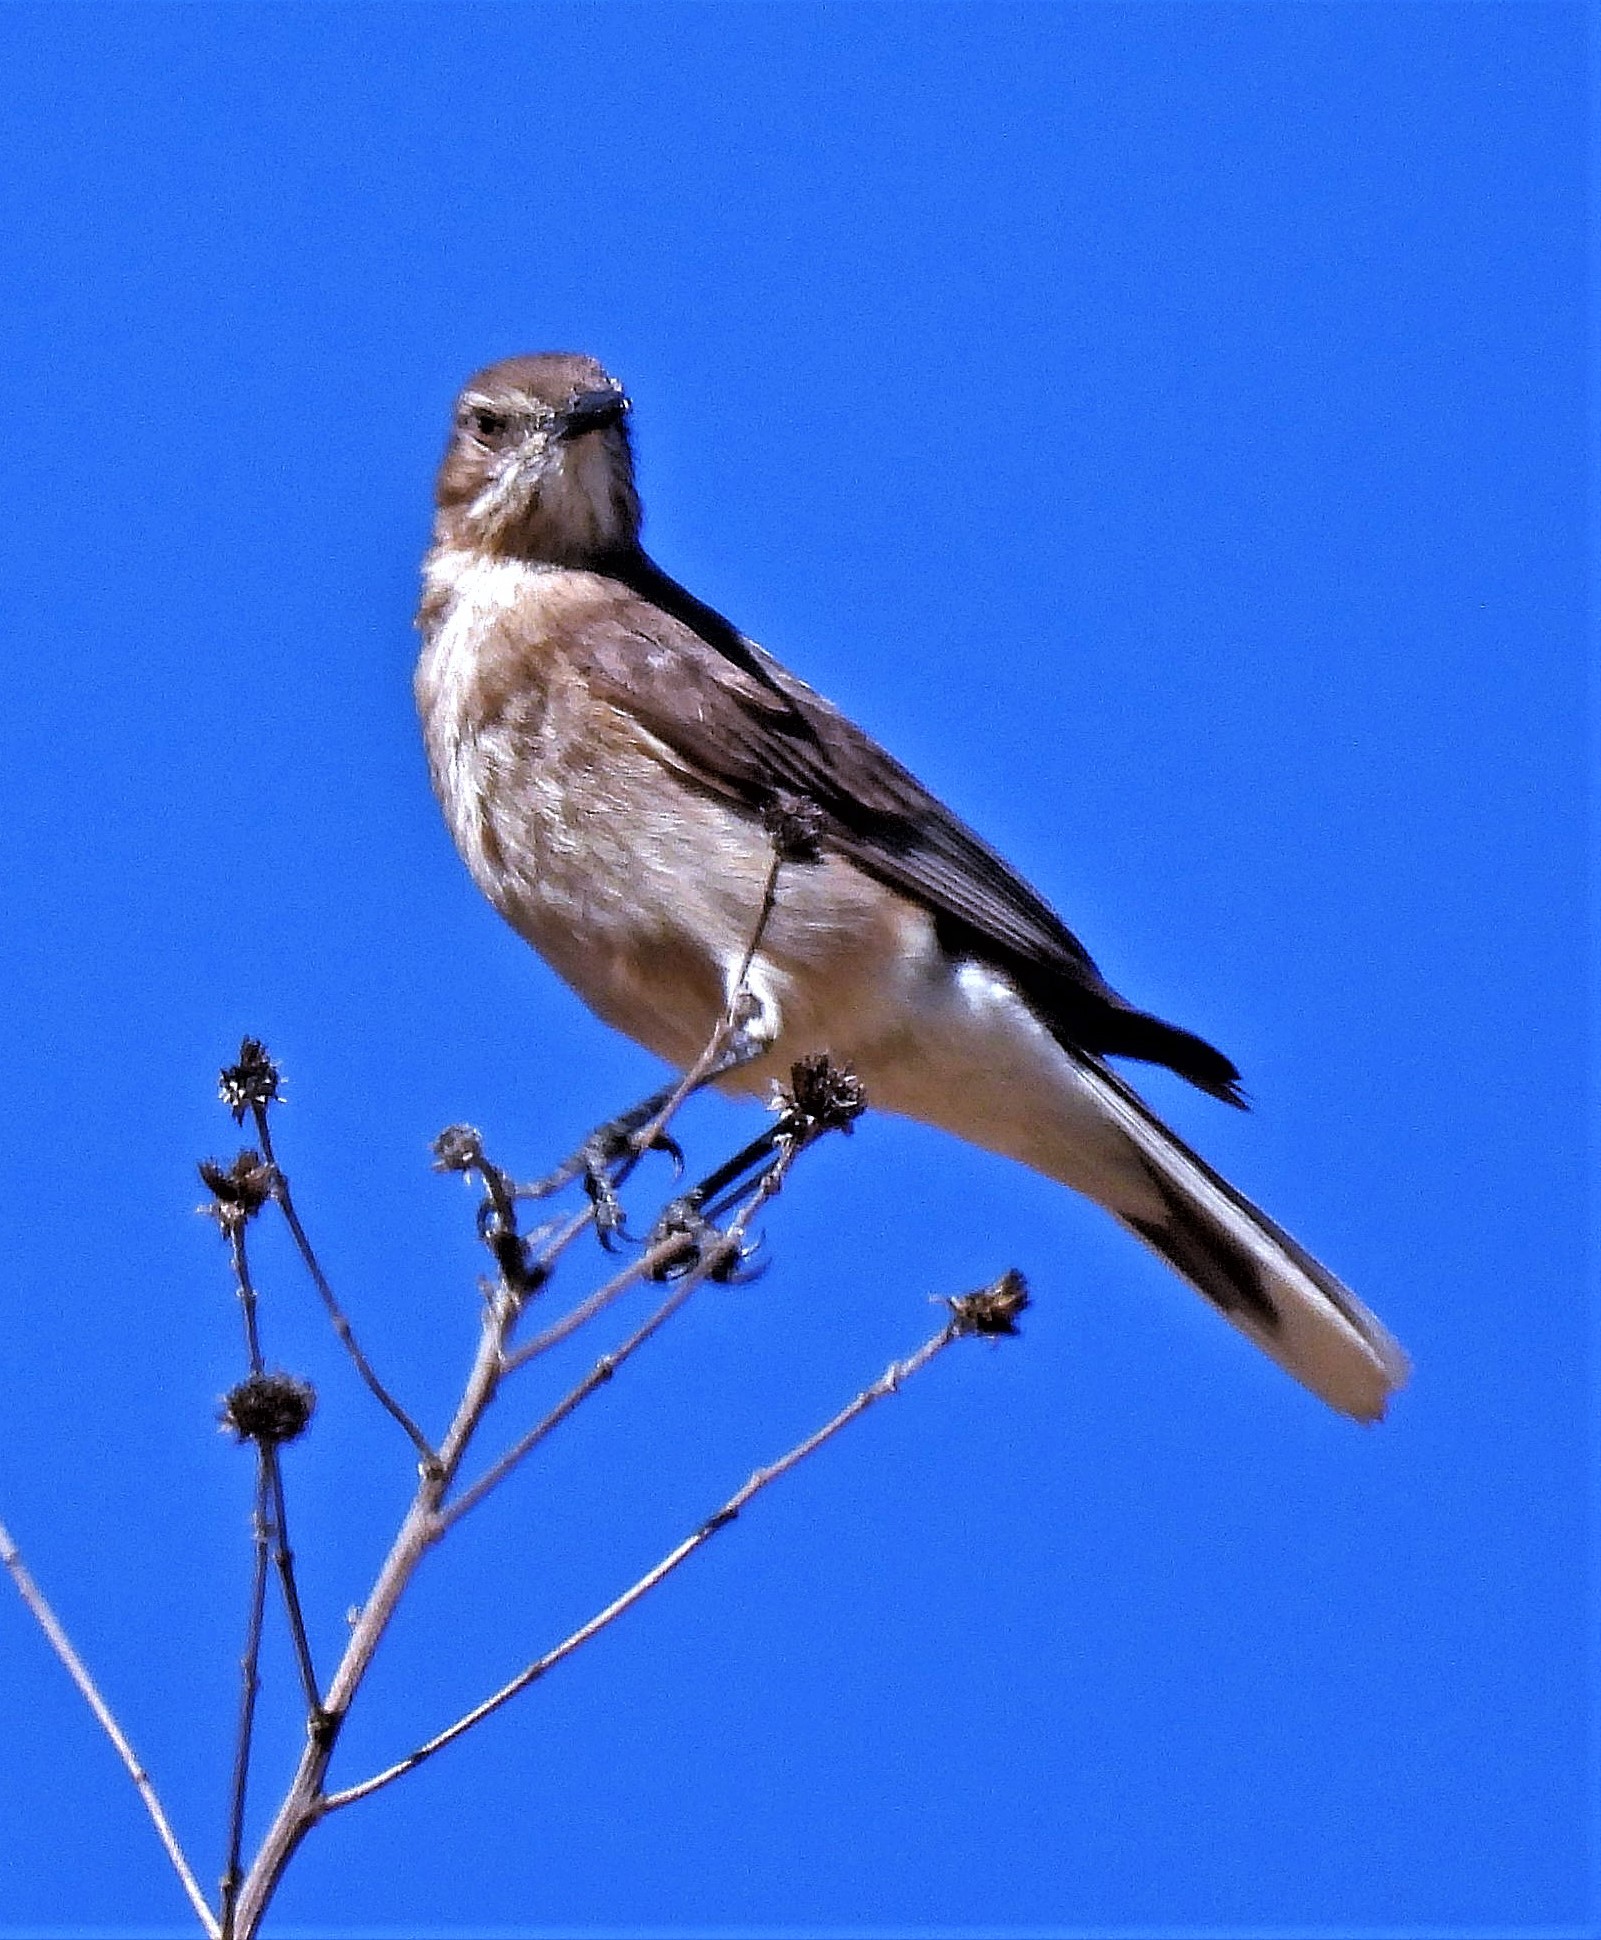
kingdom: Animalia
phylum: Chordata
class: Aves
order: Passeriformes
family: Tyrannidae
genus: Agriornis
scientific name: Agriornis montanus
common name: Black-billed shrike-tyrant
